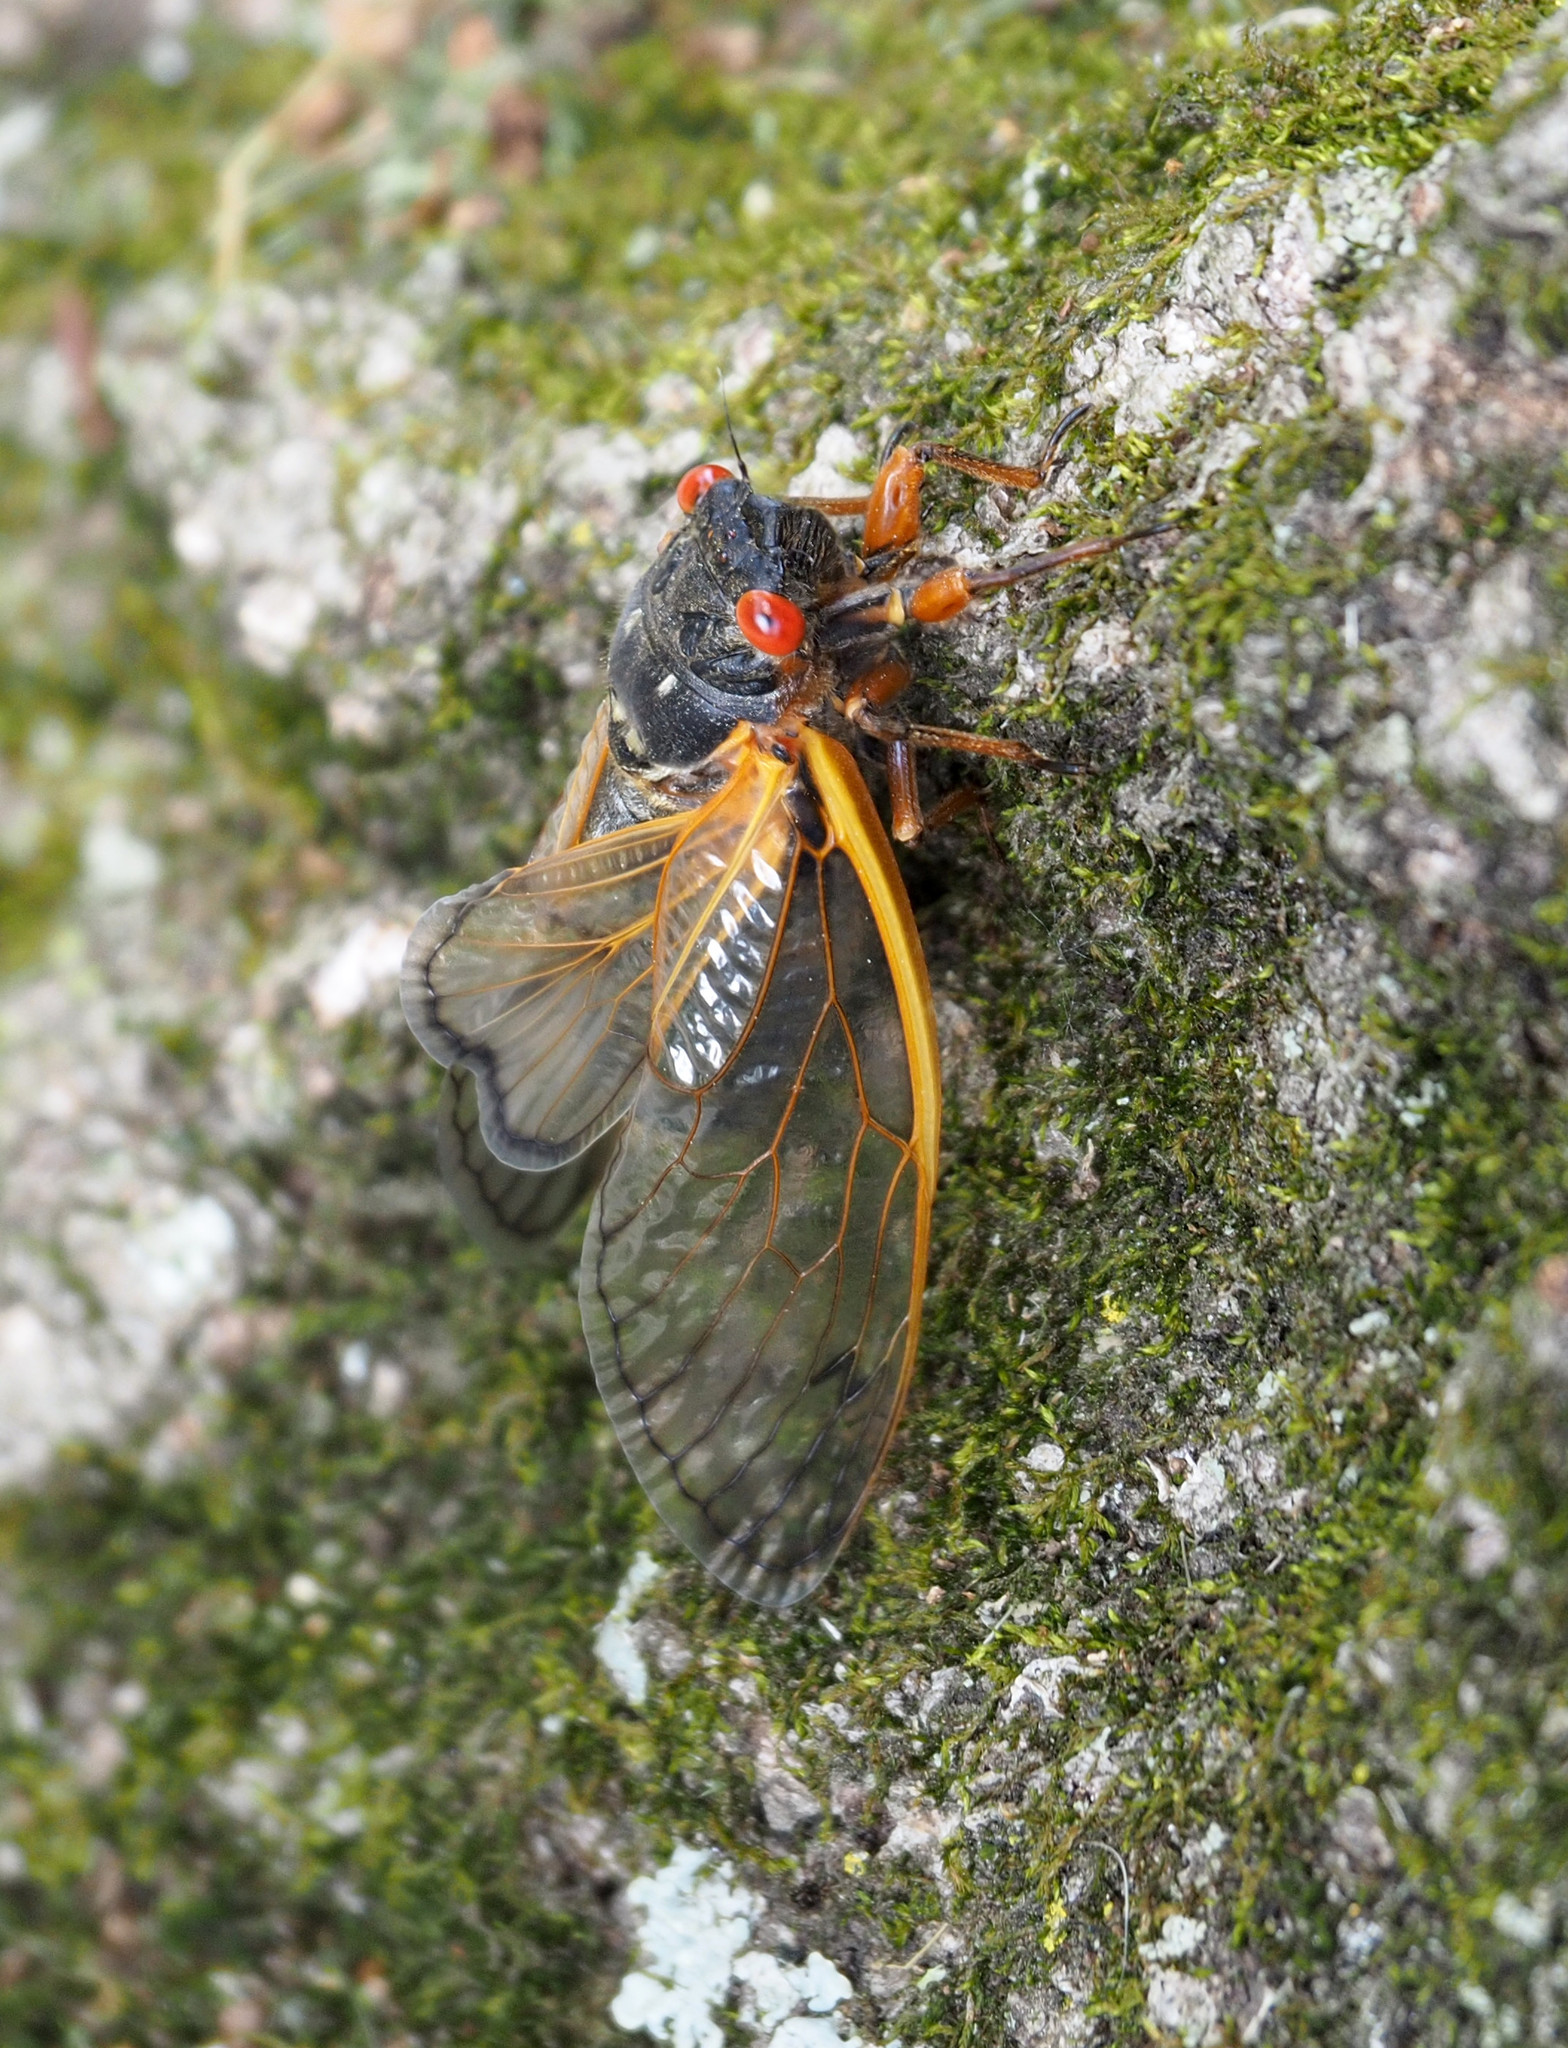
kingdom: Animalia
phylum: Arthropoda
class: Insecta
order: Hemiptera
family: Cicadidae
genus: Magicicada
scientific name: Magicicada septendecim
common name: Periodical cicada
